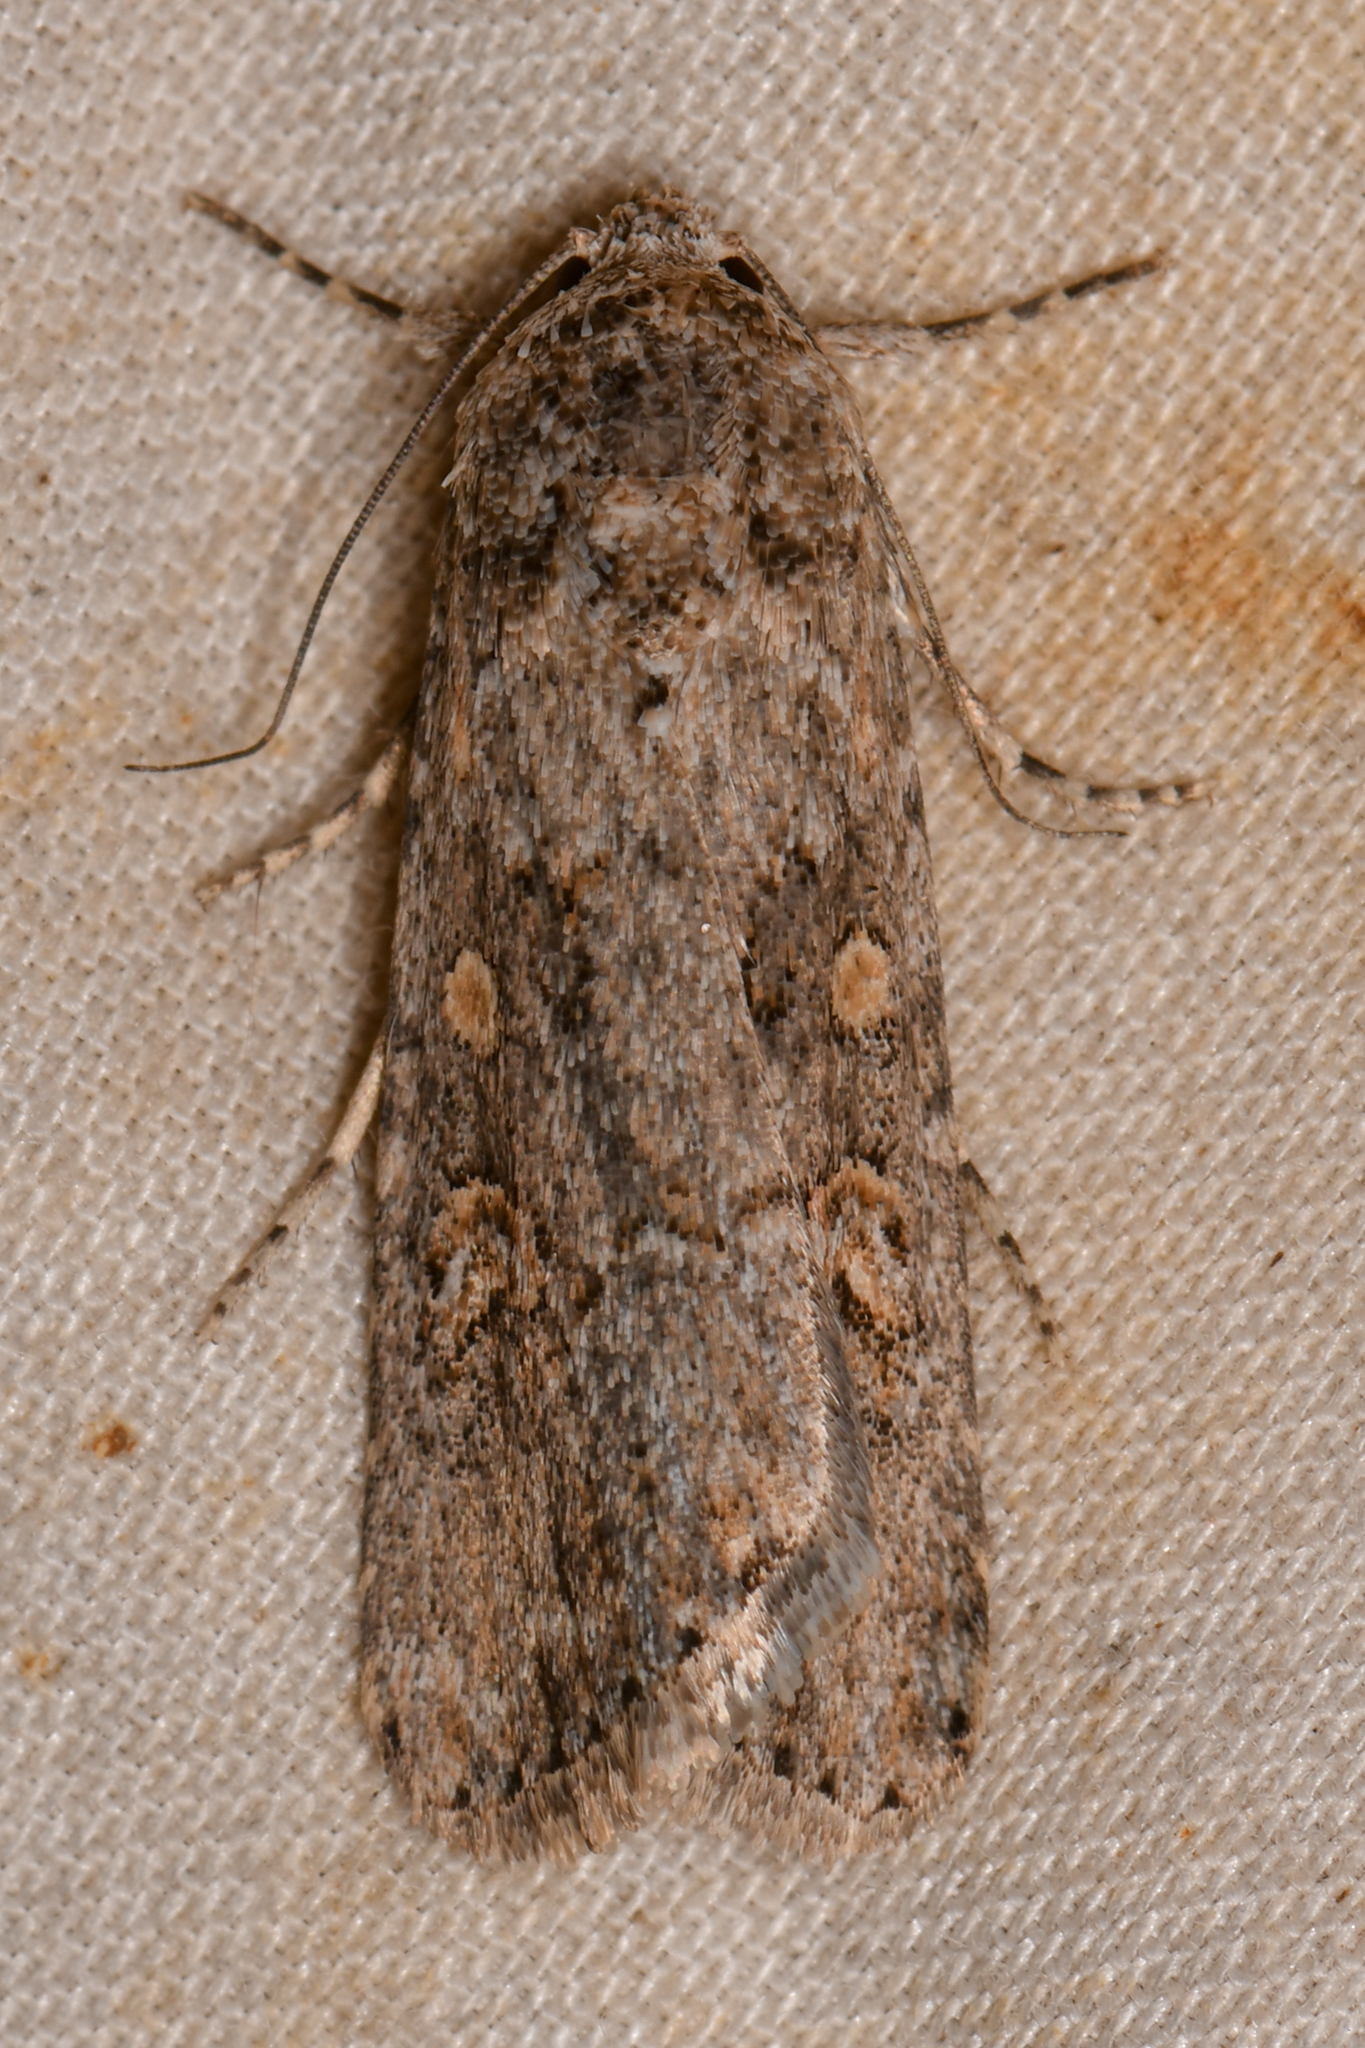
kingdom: Animalia
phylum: Arthropoda
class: Insecta
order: Lepidoptera
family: Noctuidae
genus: Spodoptera
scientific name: Spodoptera exigua
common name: Beet armyworm
